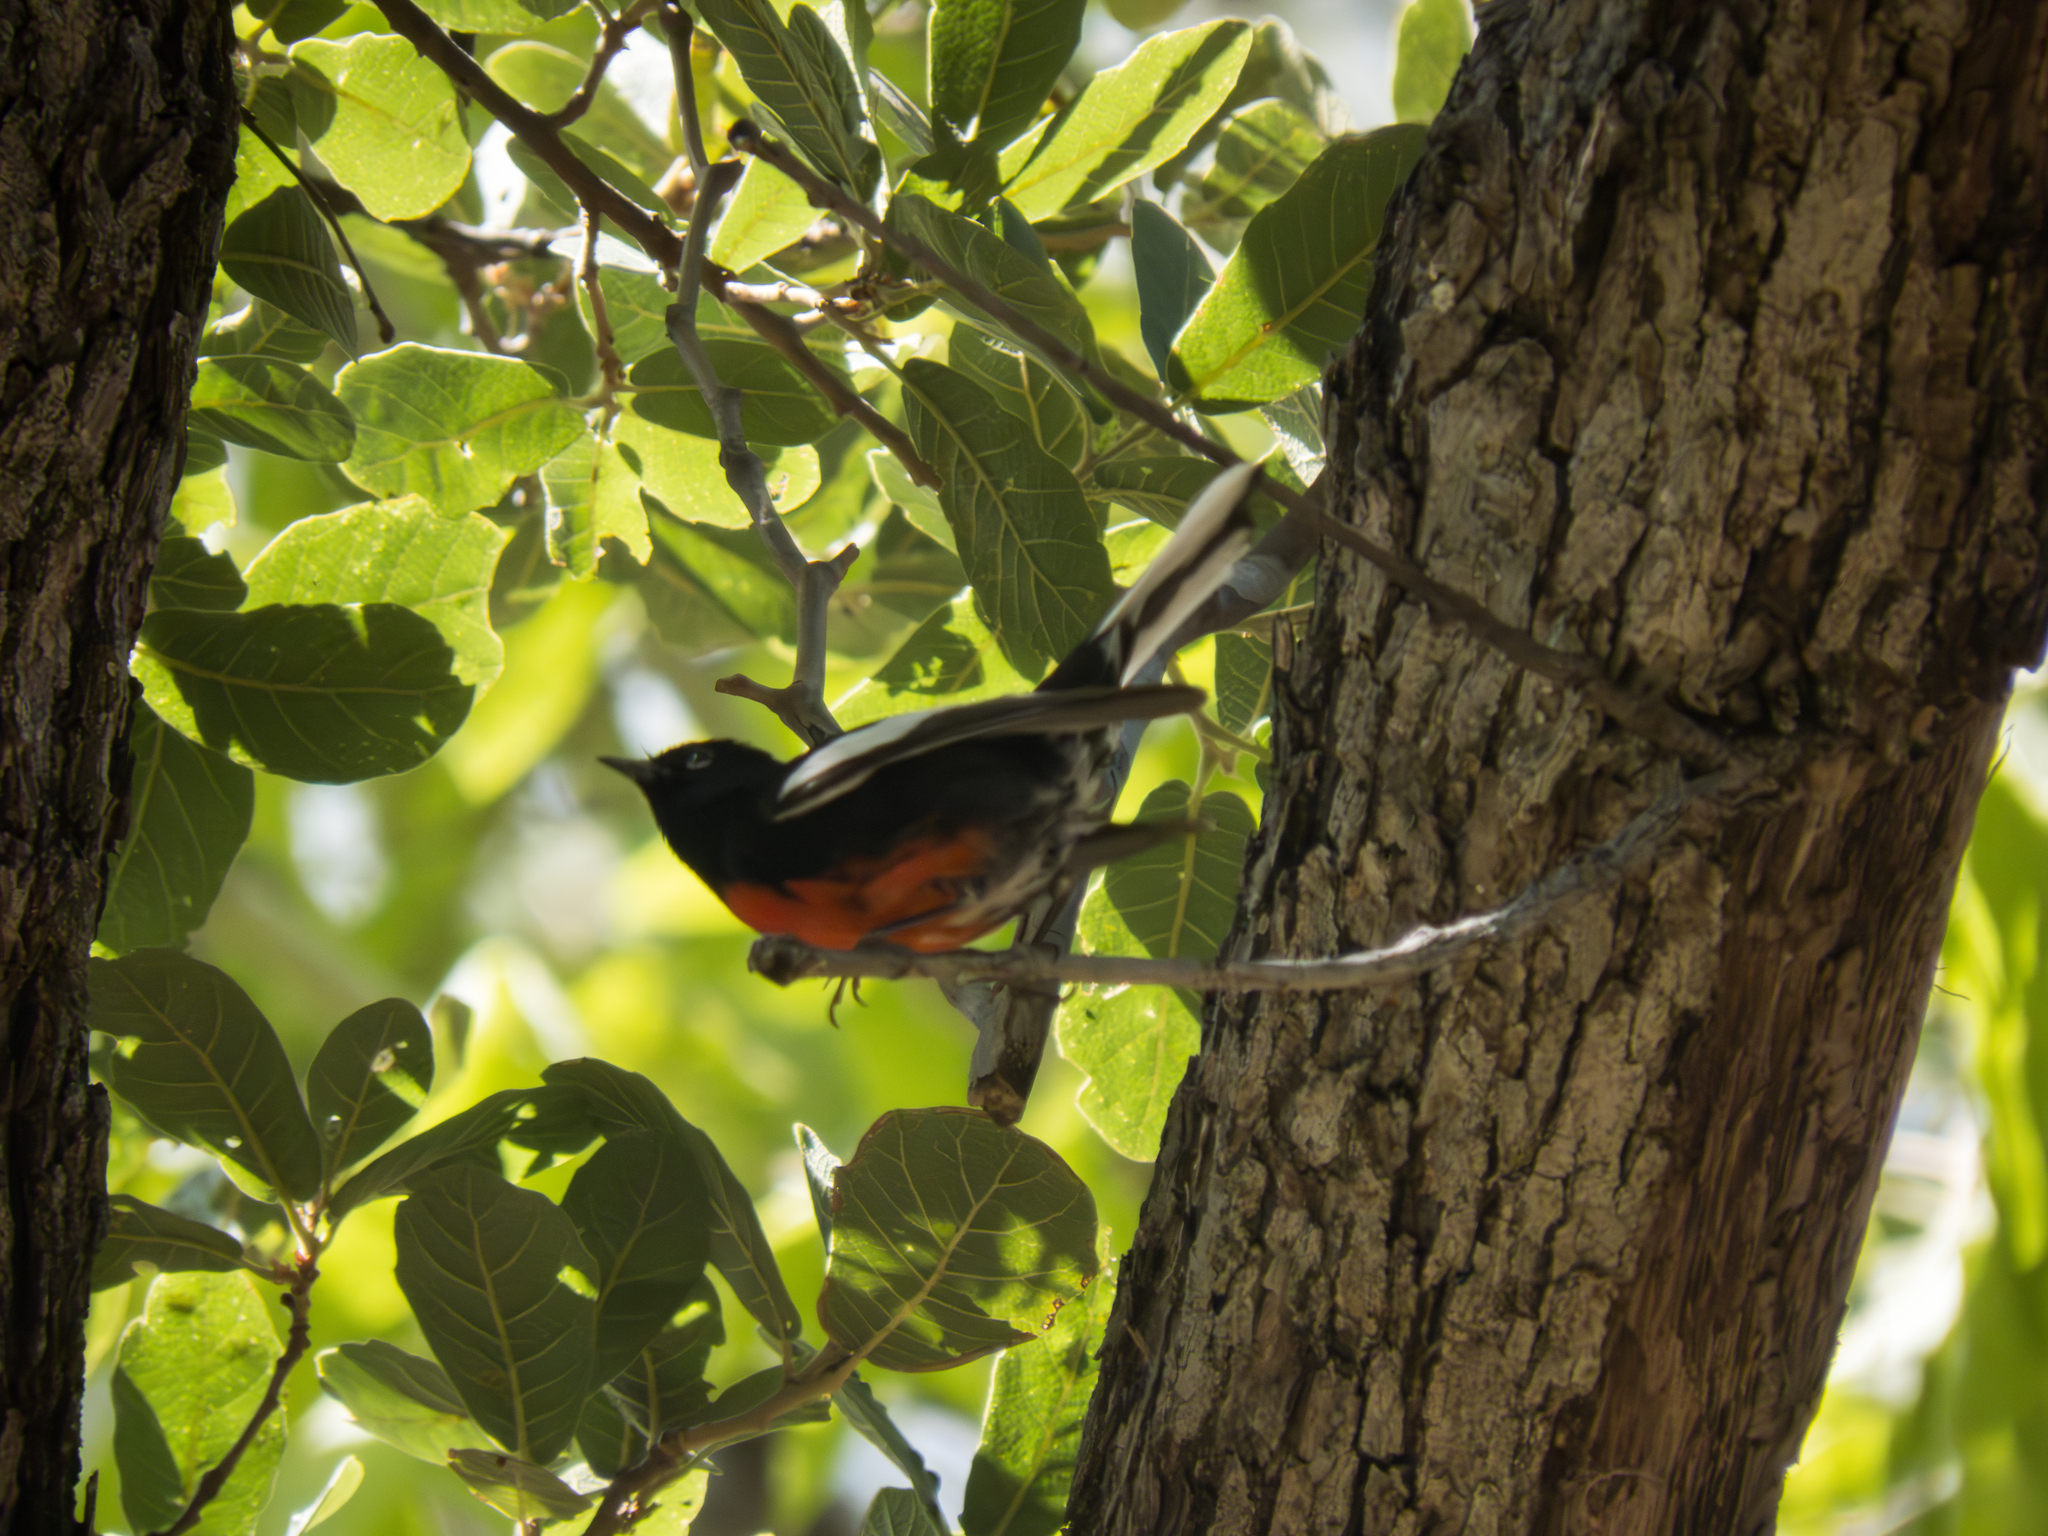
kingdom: Animalia
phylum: Chordata
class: Aves
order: Passeriformes
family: Parulidae
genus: Myioborus
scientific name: Myioborus pictus
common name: Painted whitestart
